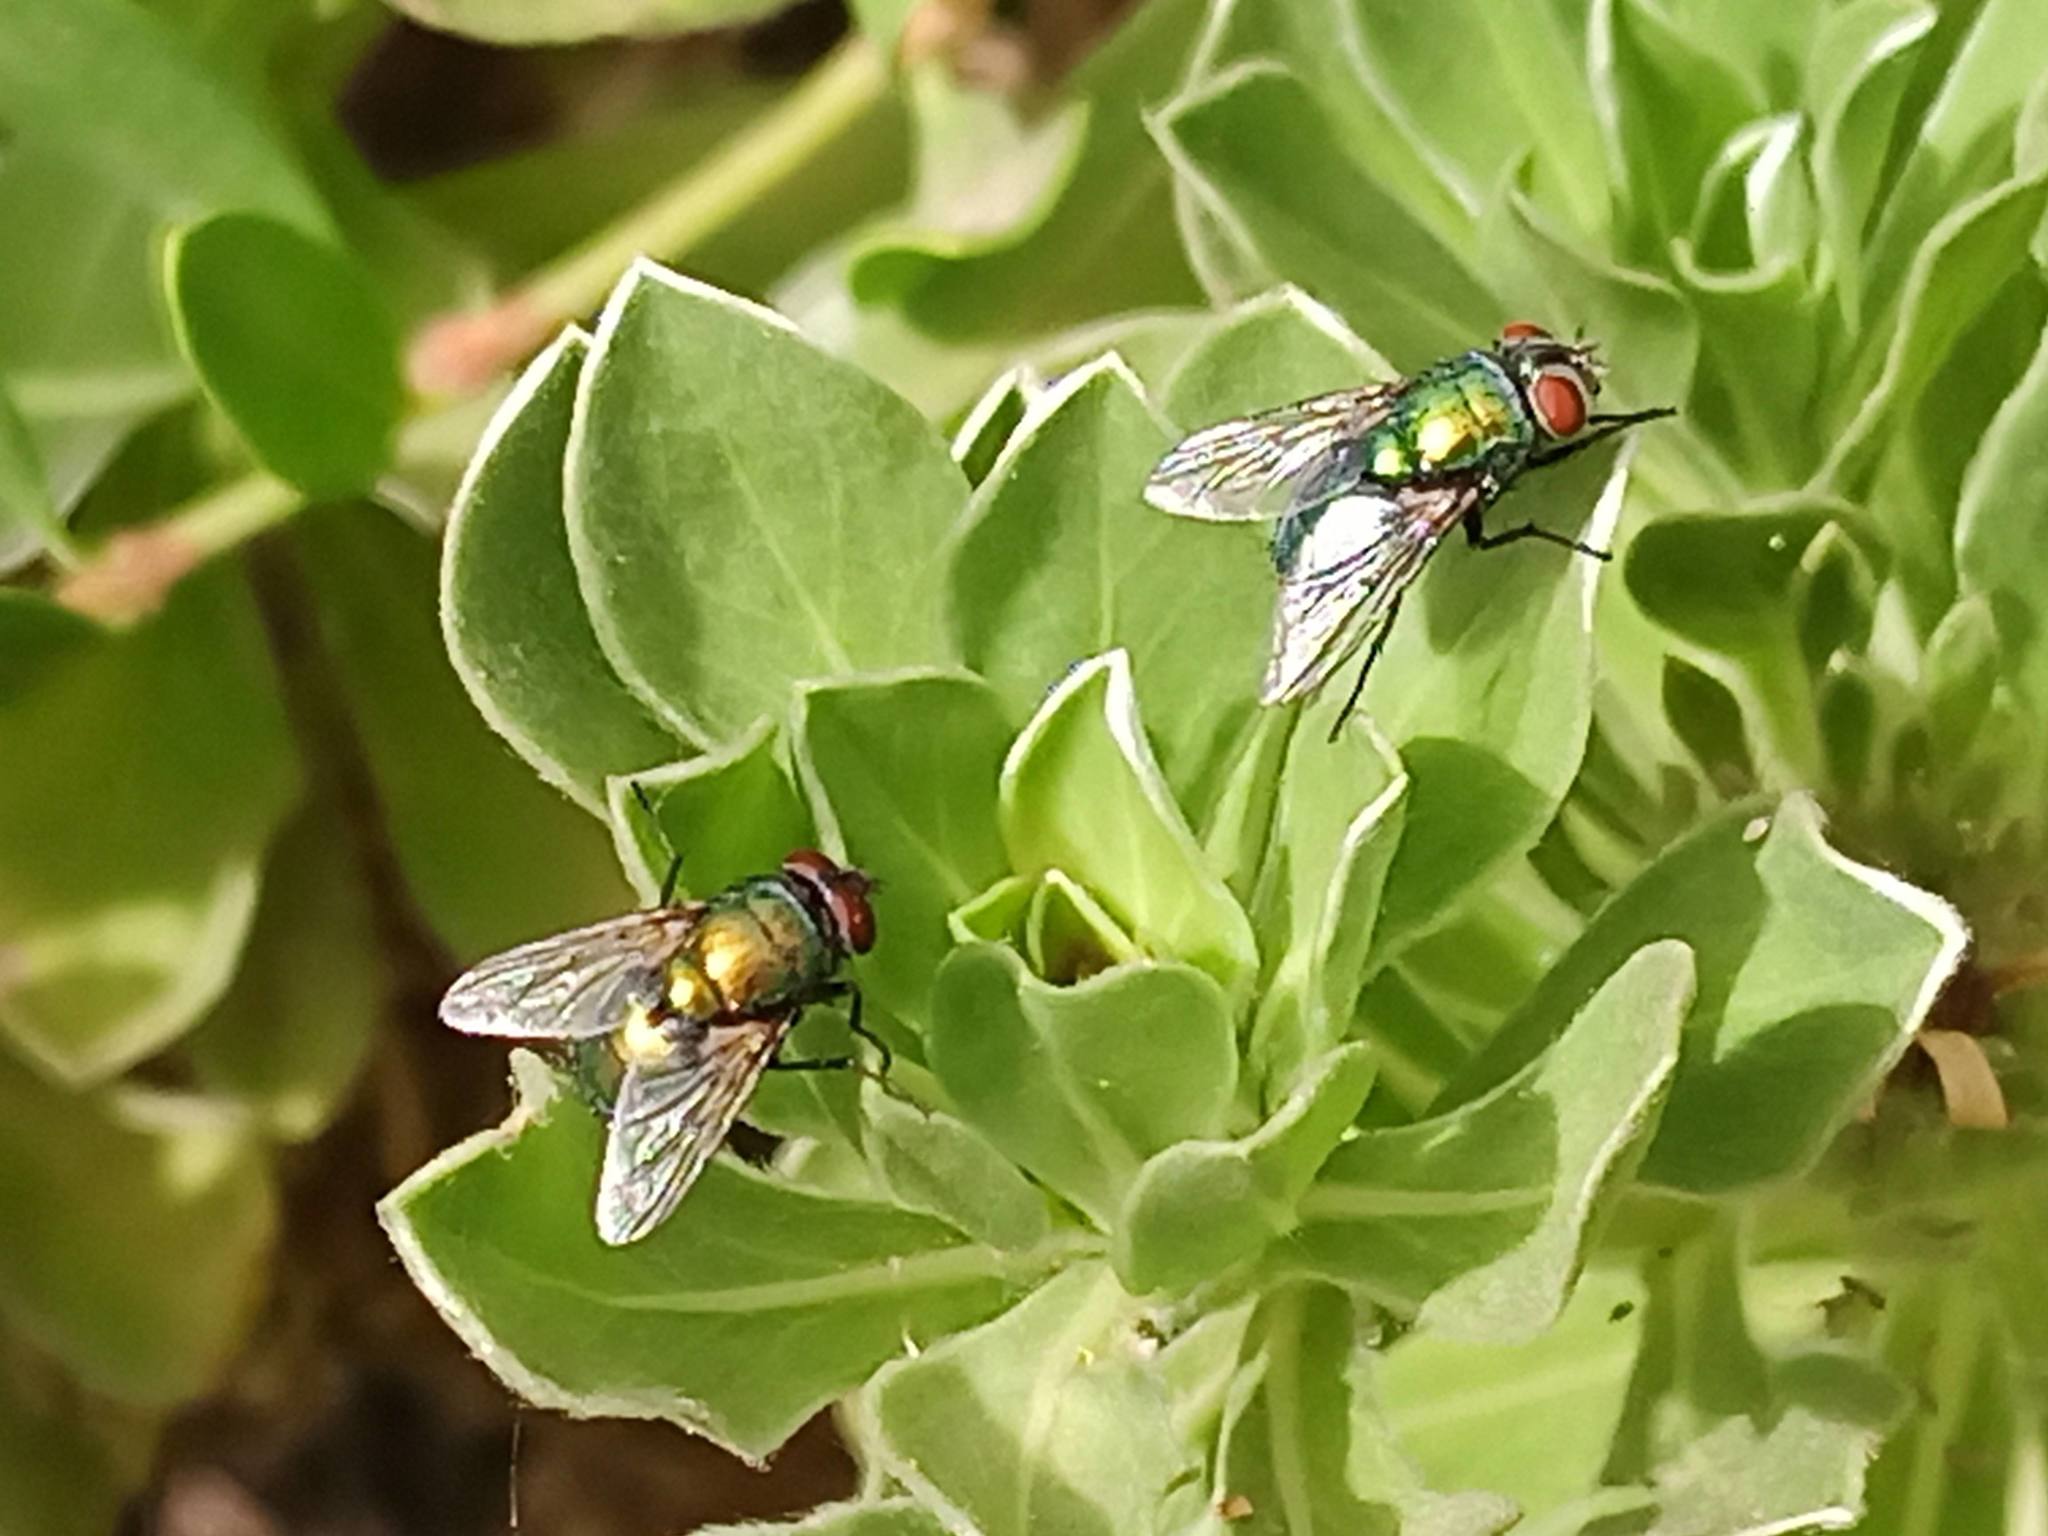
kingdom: Animalia
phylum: Arthropoda
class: Insecta
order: Diptera
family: Calliphoridae
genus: Lucilia
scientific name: Lucilia sericata
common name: Blow fly
